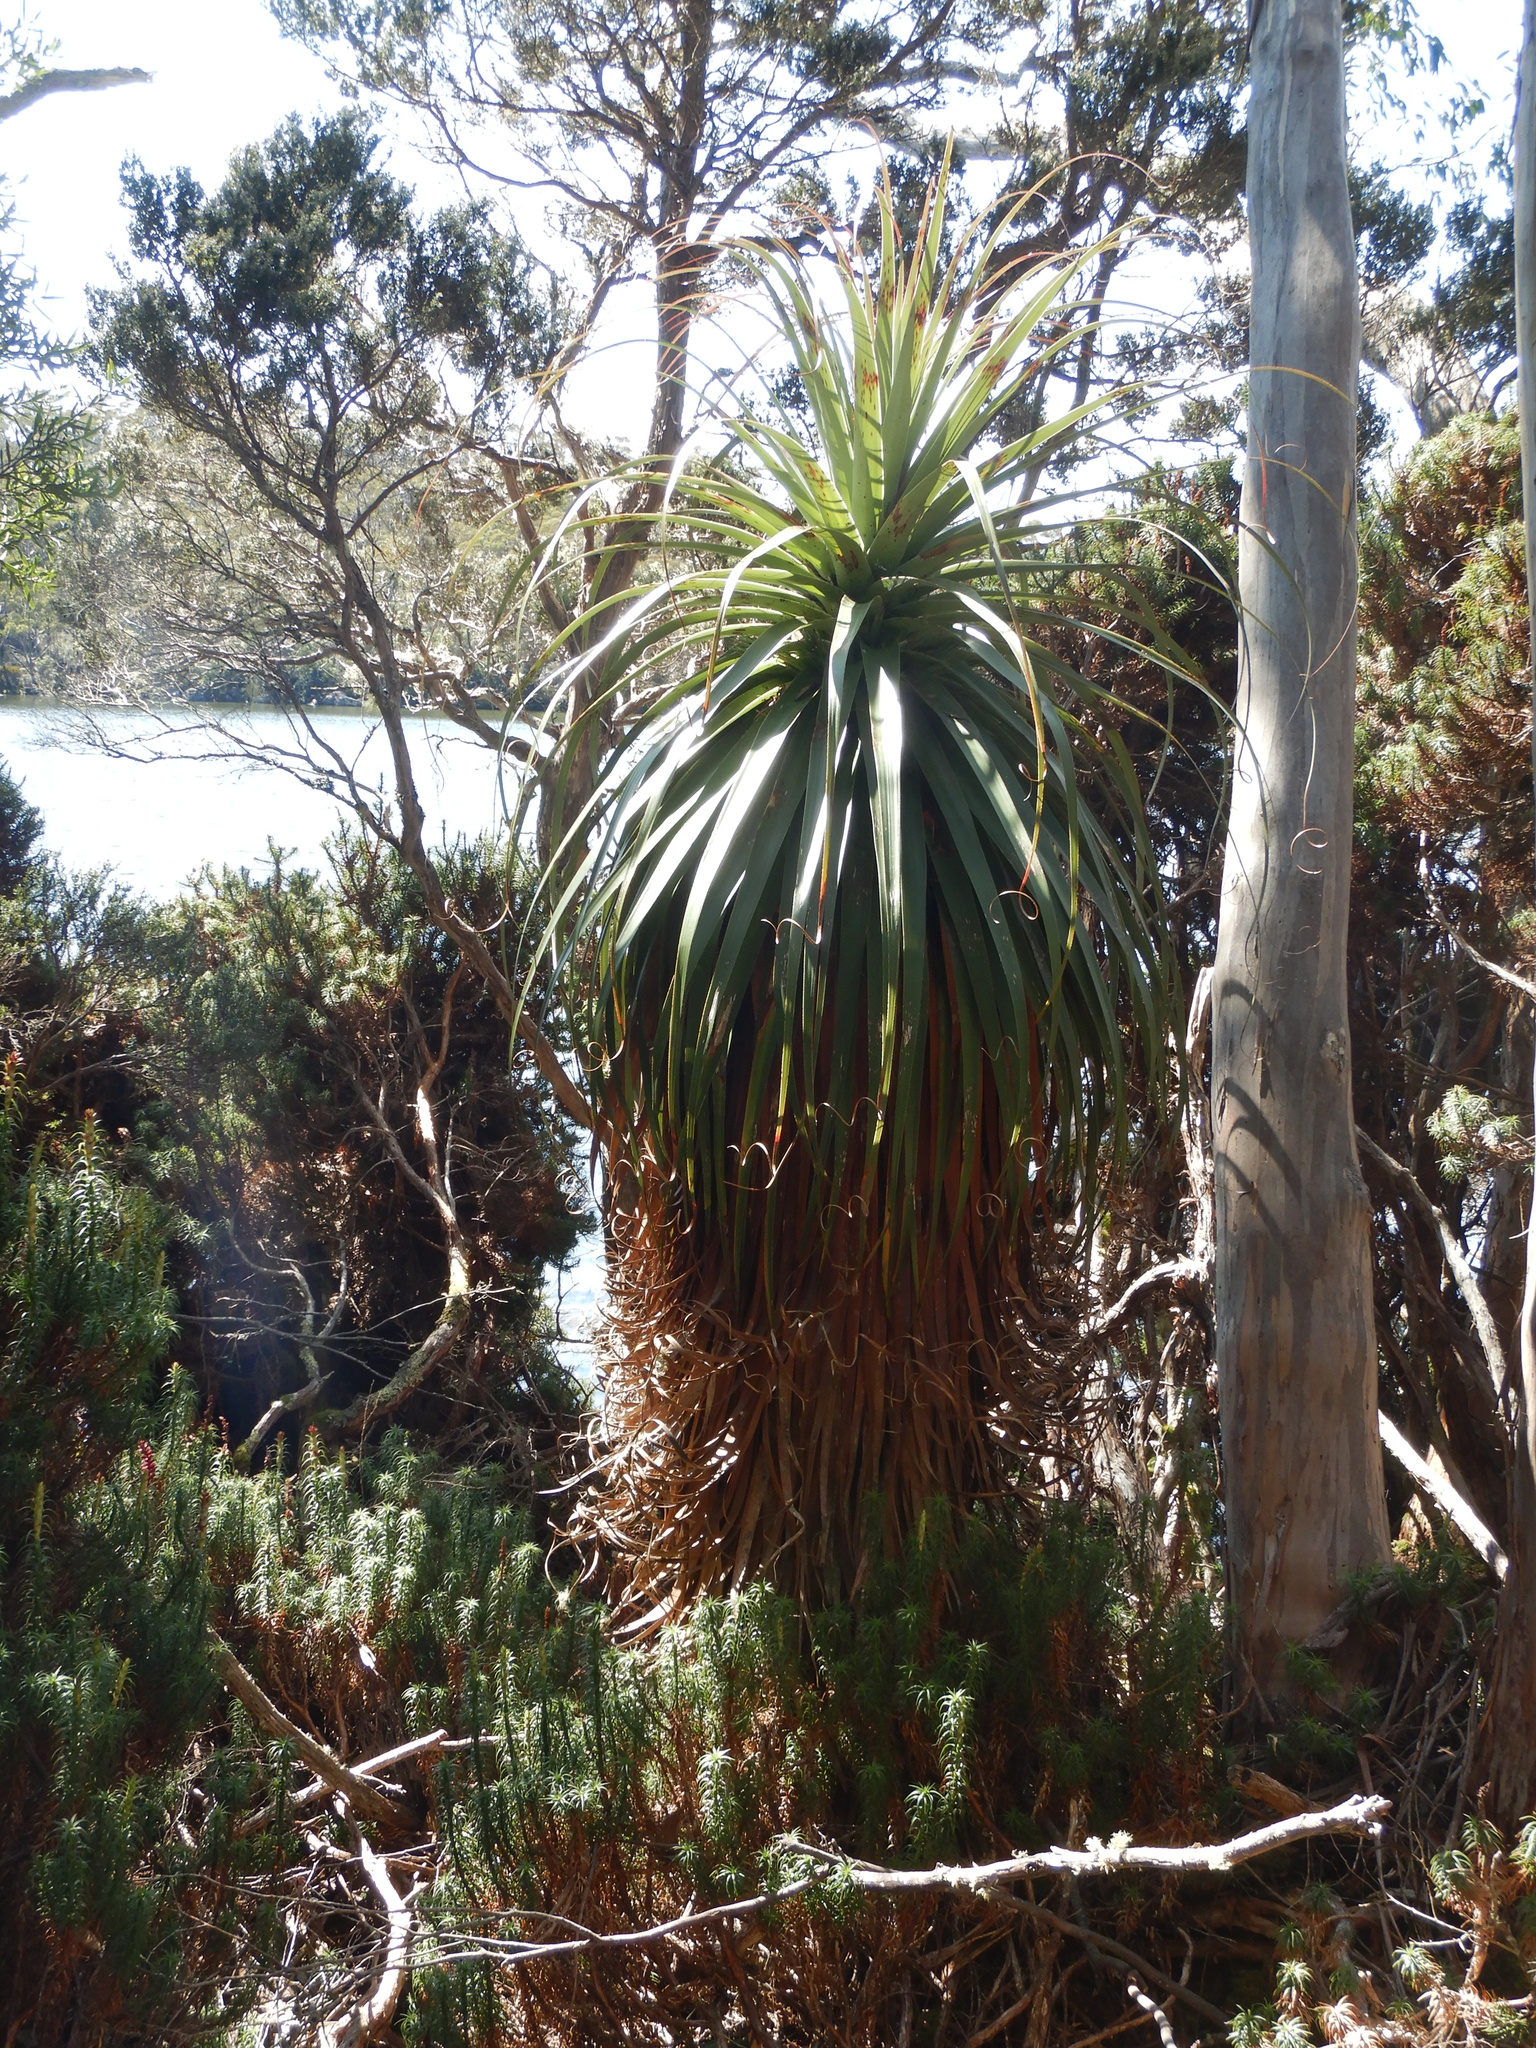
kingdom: Plantae
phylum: Tracheophyta
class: Magnoliopsida
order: Ericales
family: Ericaceae
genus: Dracophyllum
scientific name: Dracophyllum pandanifolium
